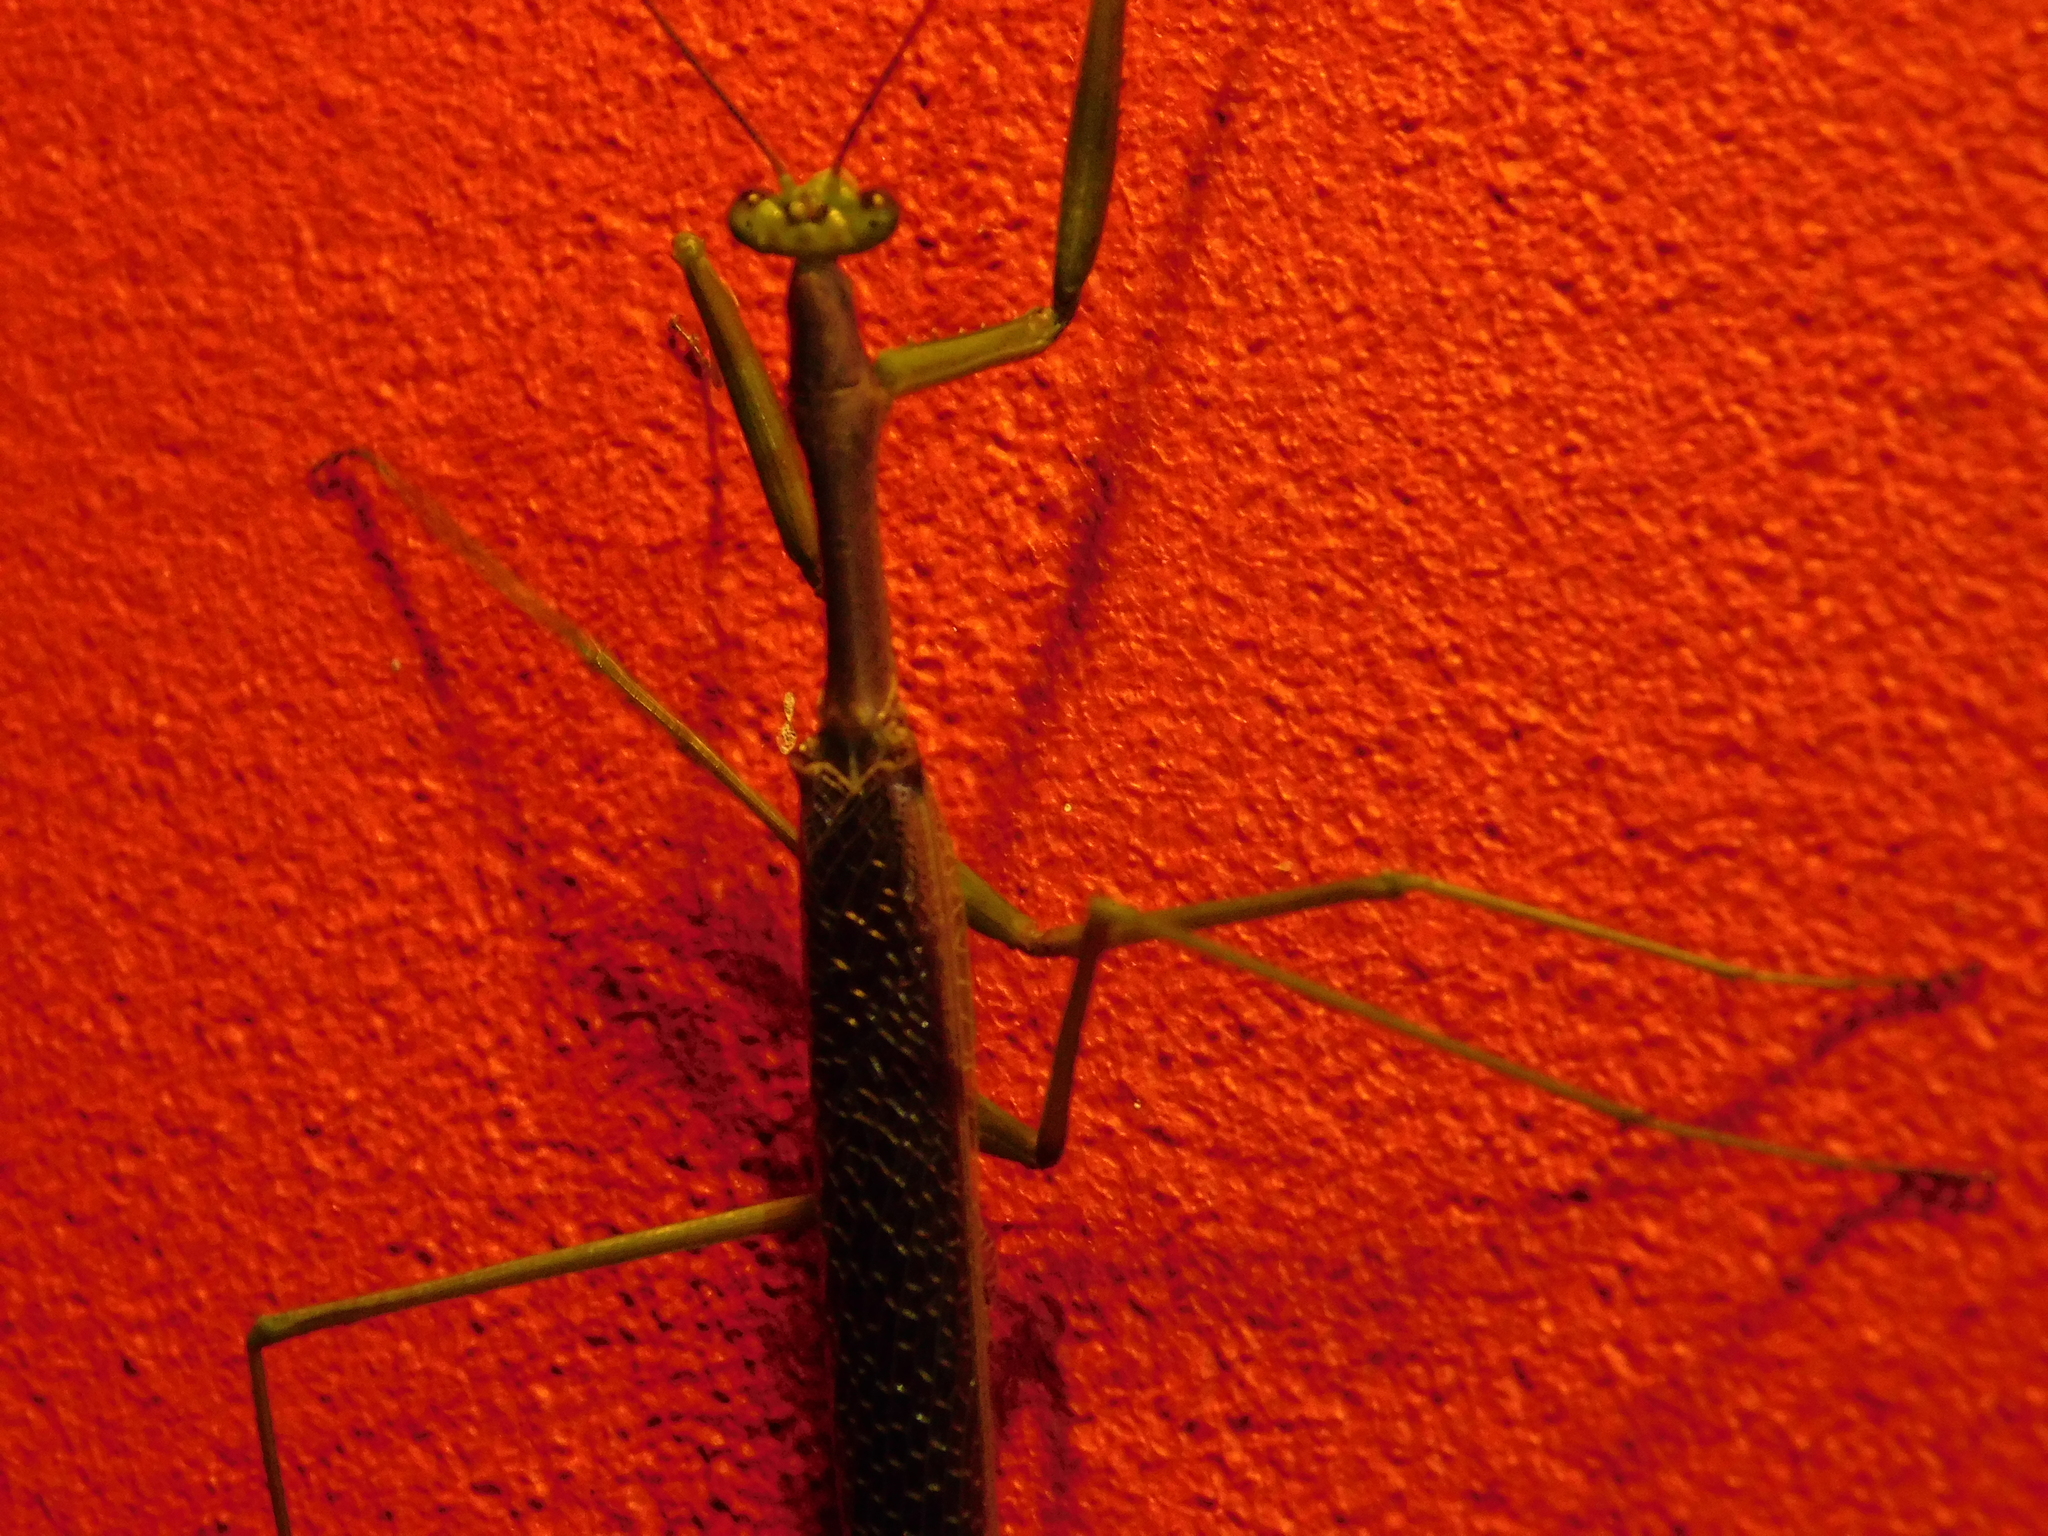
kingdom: Animalia
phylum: Arthropoda
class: Insecta
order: Mantodea
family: Coptopterygidae
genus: Coptopteryx
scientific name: Coptopteryx gayi
